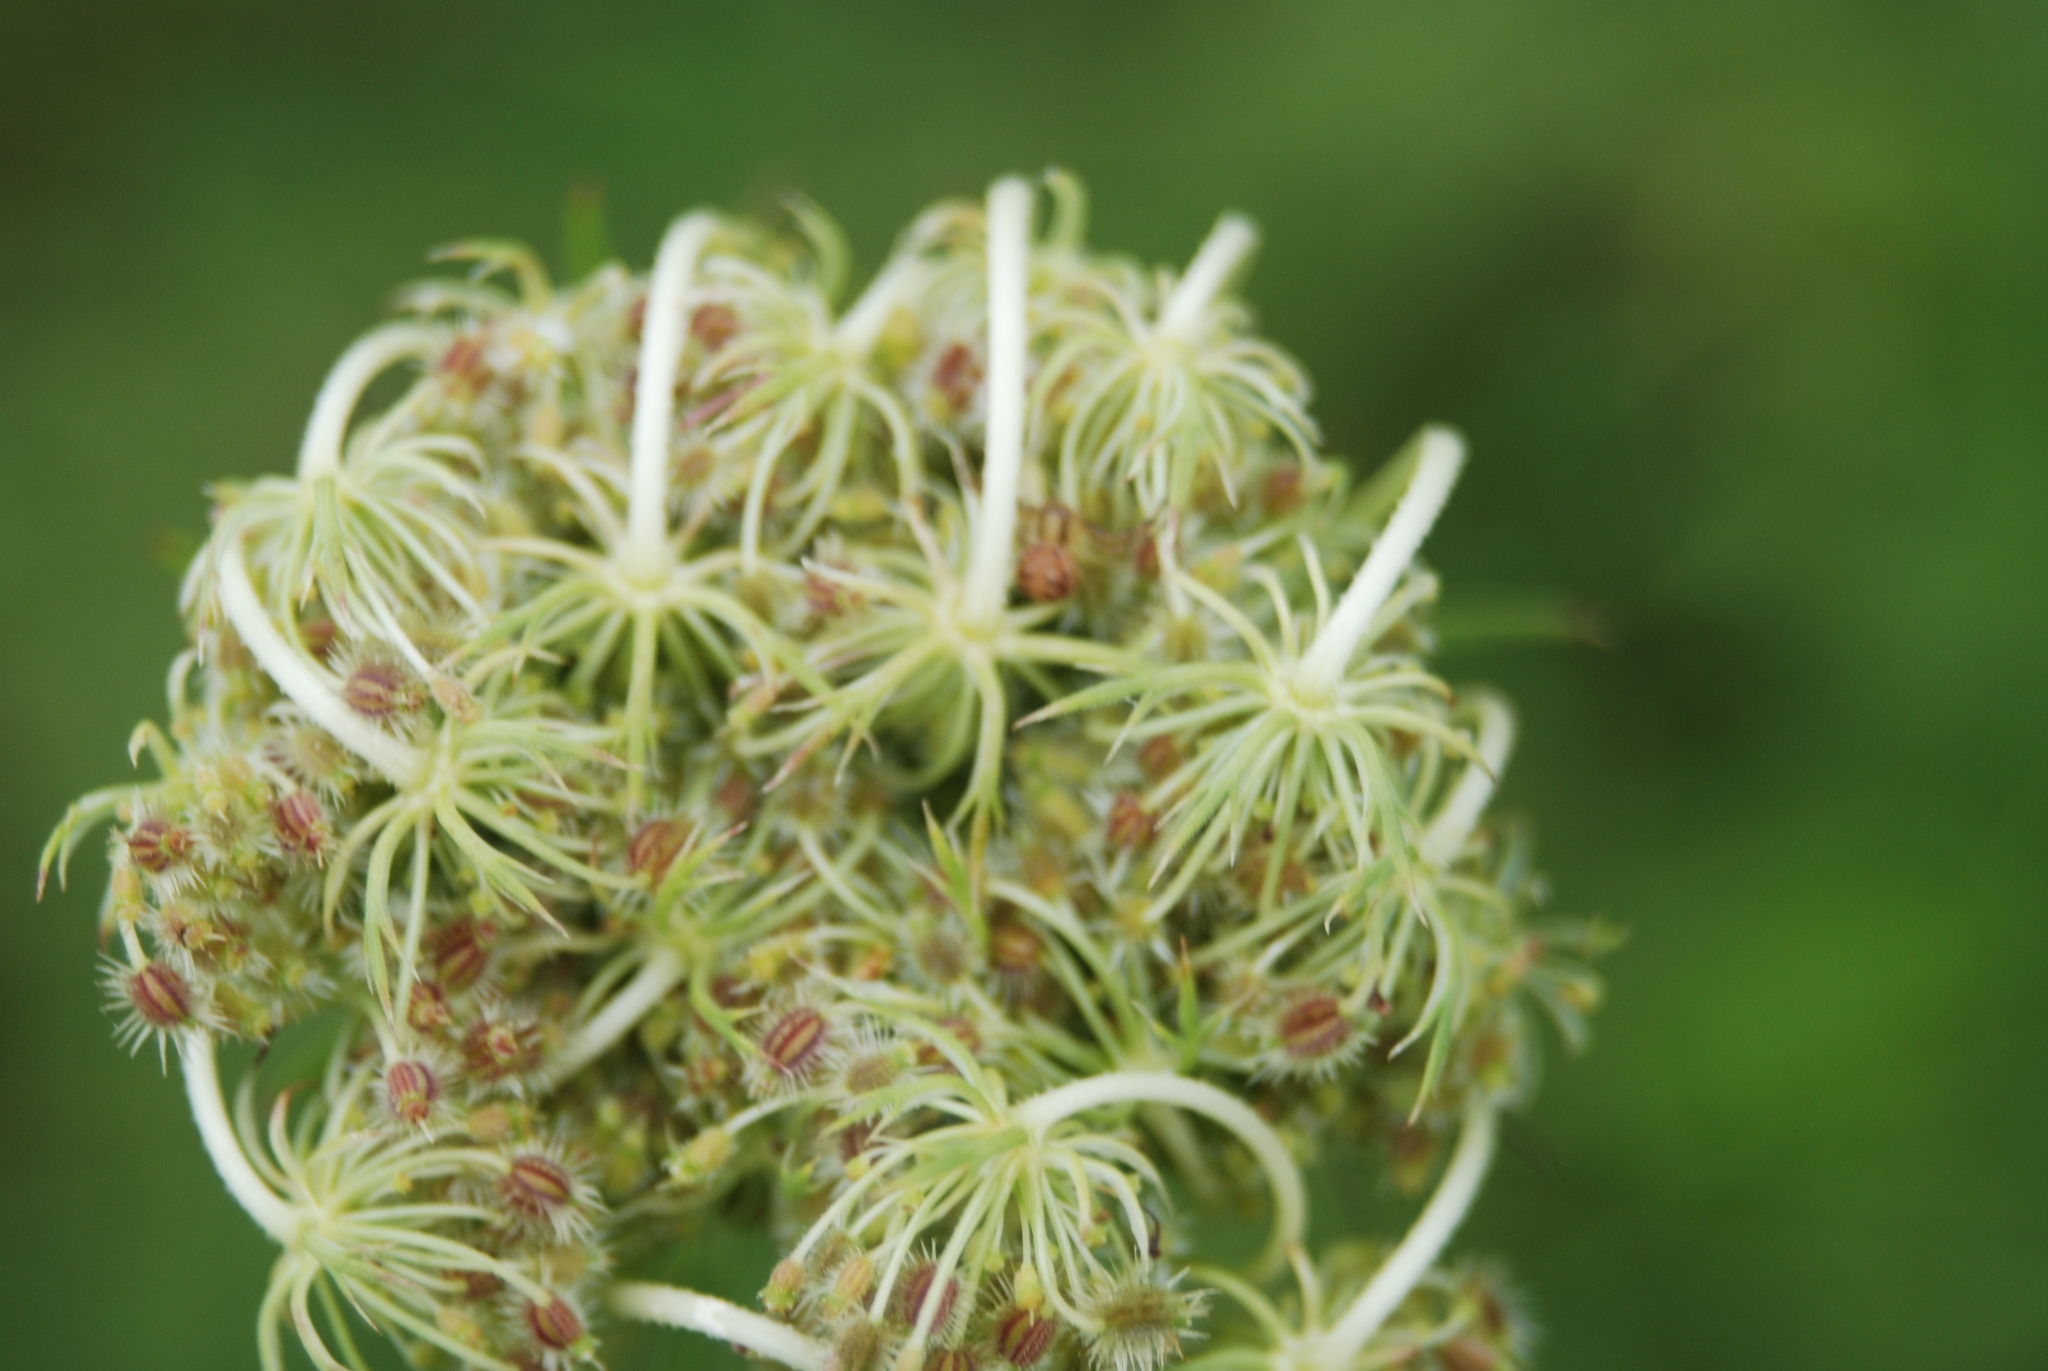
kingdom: Plantae
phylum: Tracheophyta
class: Magnoliopsida
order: Apiales
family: Apiaceae
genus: Daucus
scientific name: Daucus carota
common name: Wild carrot
